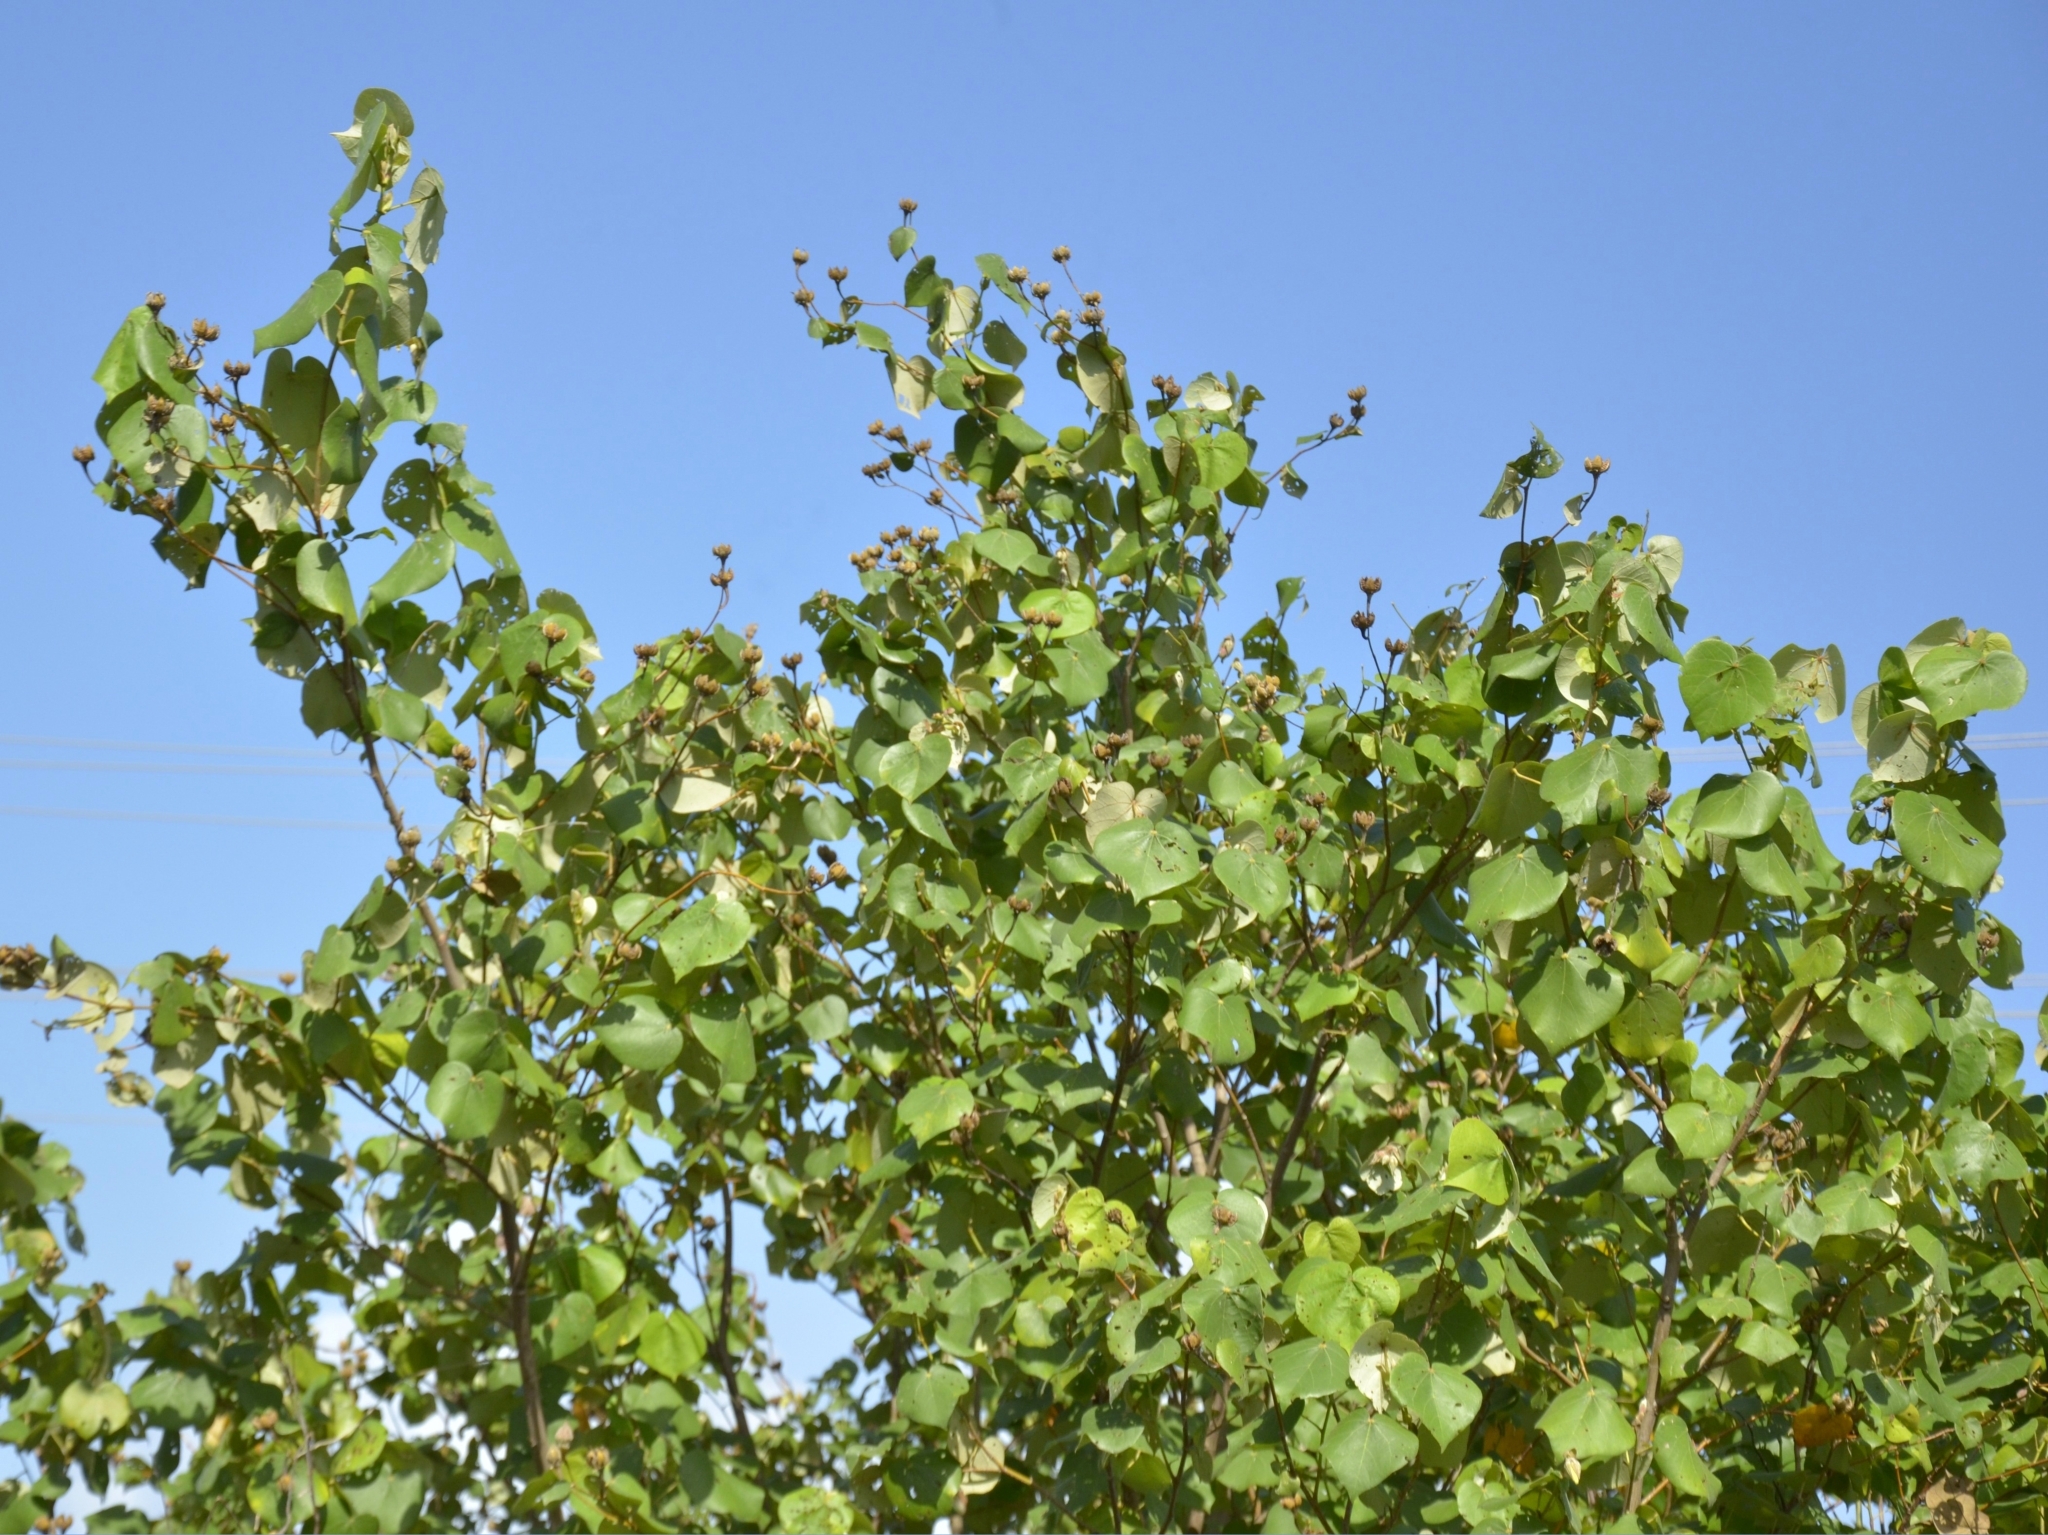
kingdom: Plantae
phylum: Tracheophyta
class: Magnoliopsida
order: Malvales
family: Malvaceae
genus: Talipariti
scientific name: Talipariti tiliaceum
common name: Sea hibiscus
